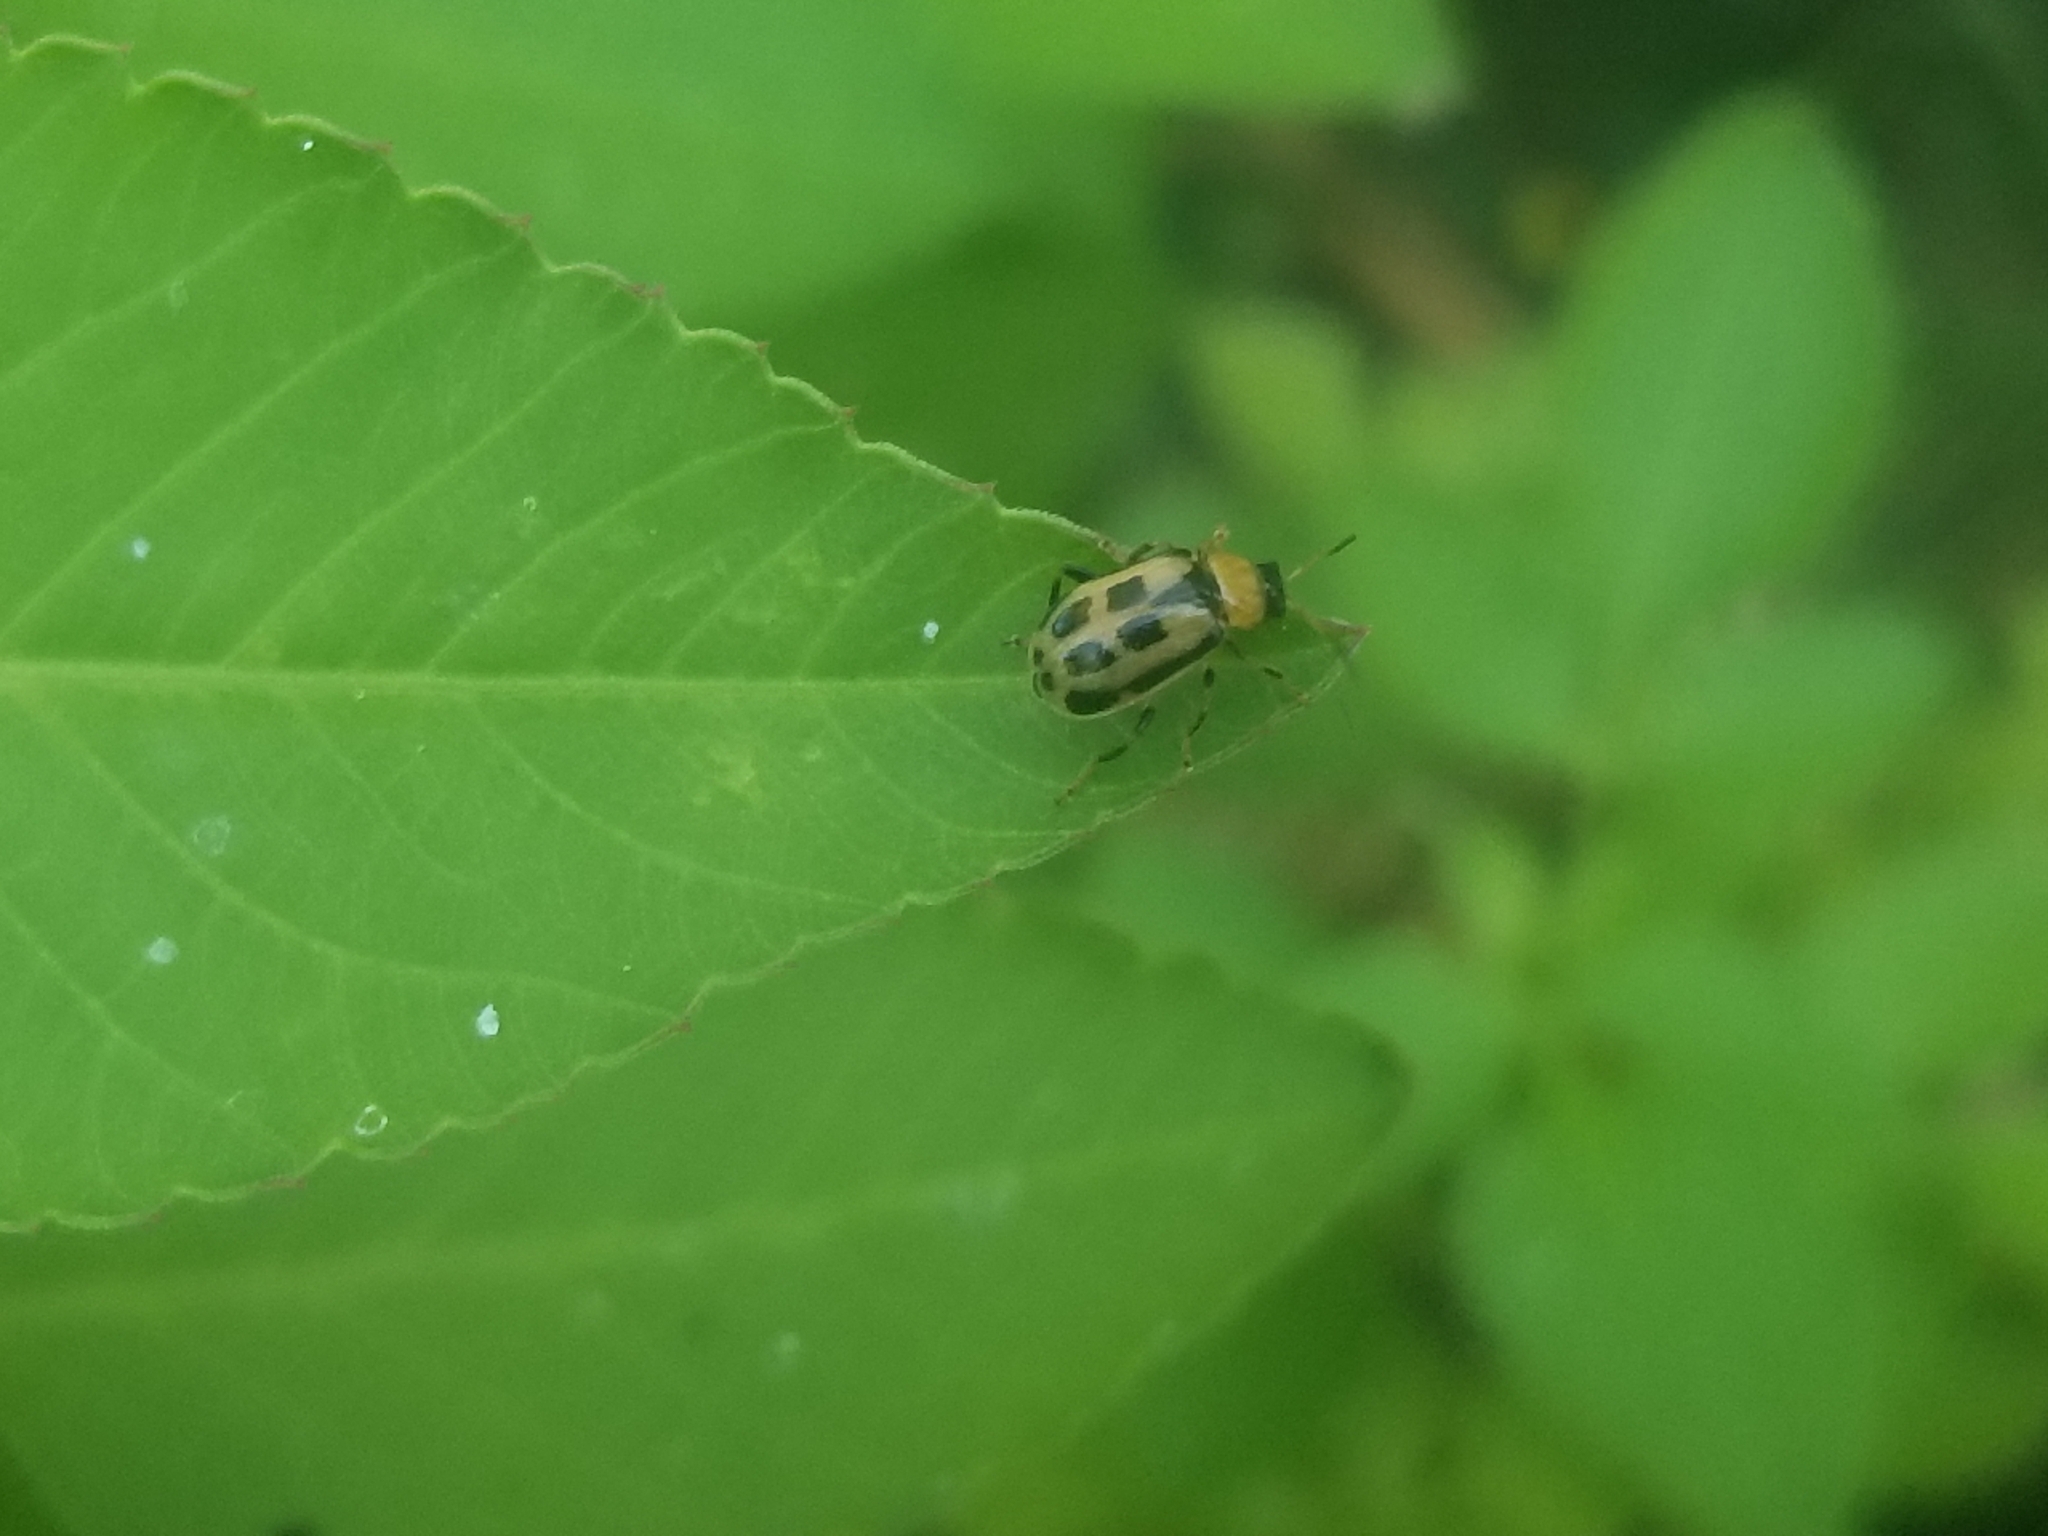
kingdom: Animalia
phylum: Arthropoda
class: Insecta
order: Coleoptera
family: Chrysomelidae
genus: Cerotoma
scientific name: Cerotoma trifurcata
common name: Bean leaf beetle
